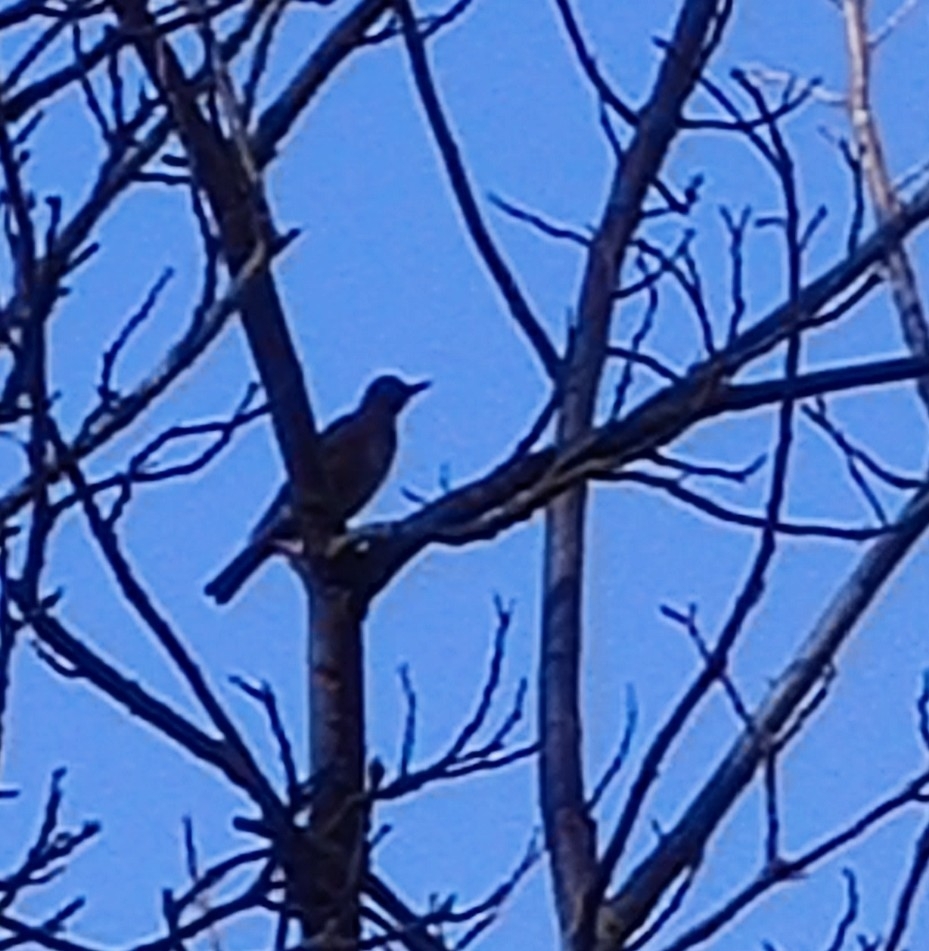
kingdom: Animalia
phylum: Chordata
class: Aves
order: Passeriformes
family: Turdidae
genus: Turdus
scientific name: Turdus migratorius
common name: American robin
